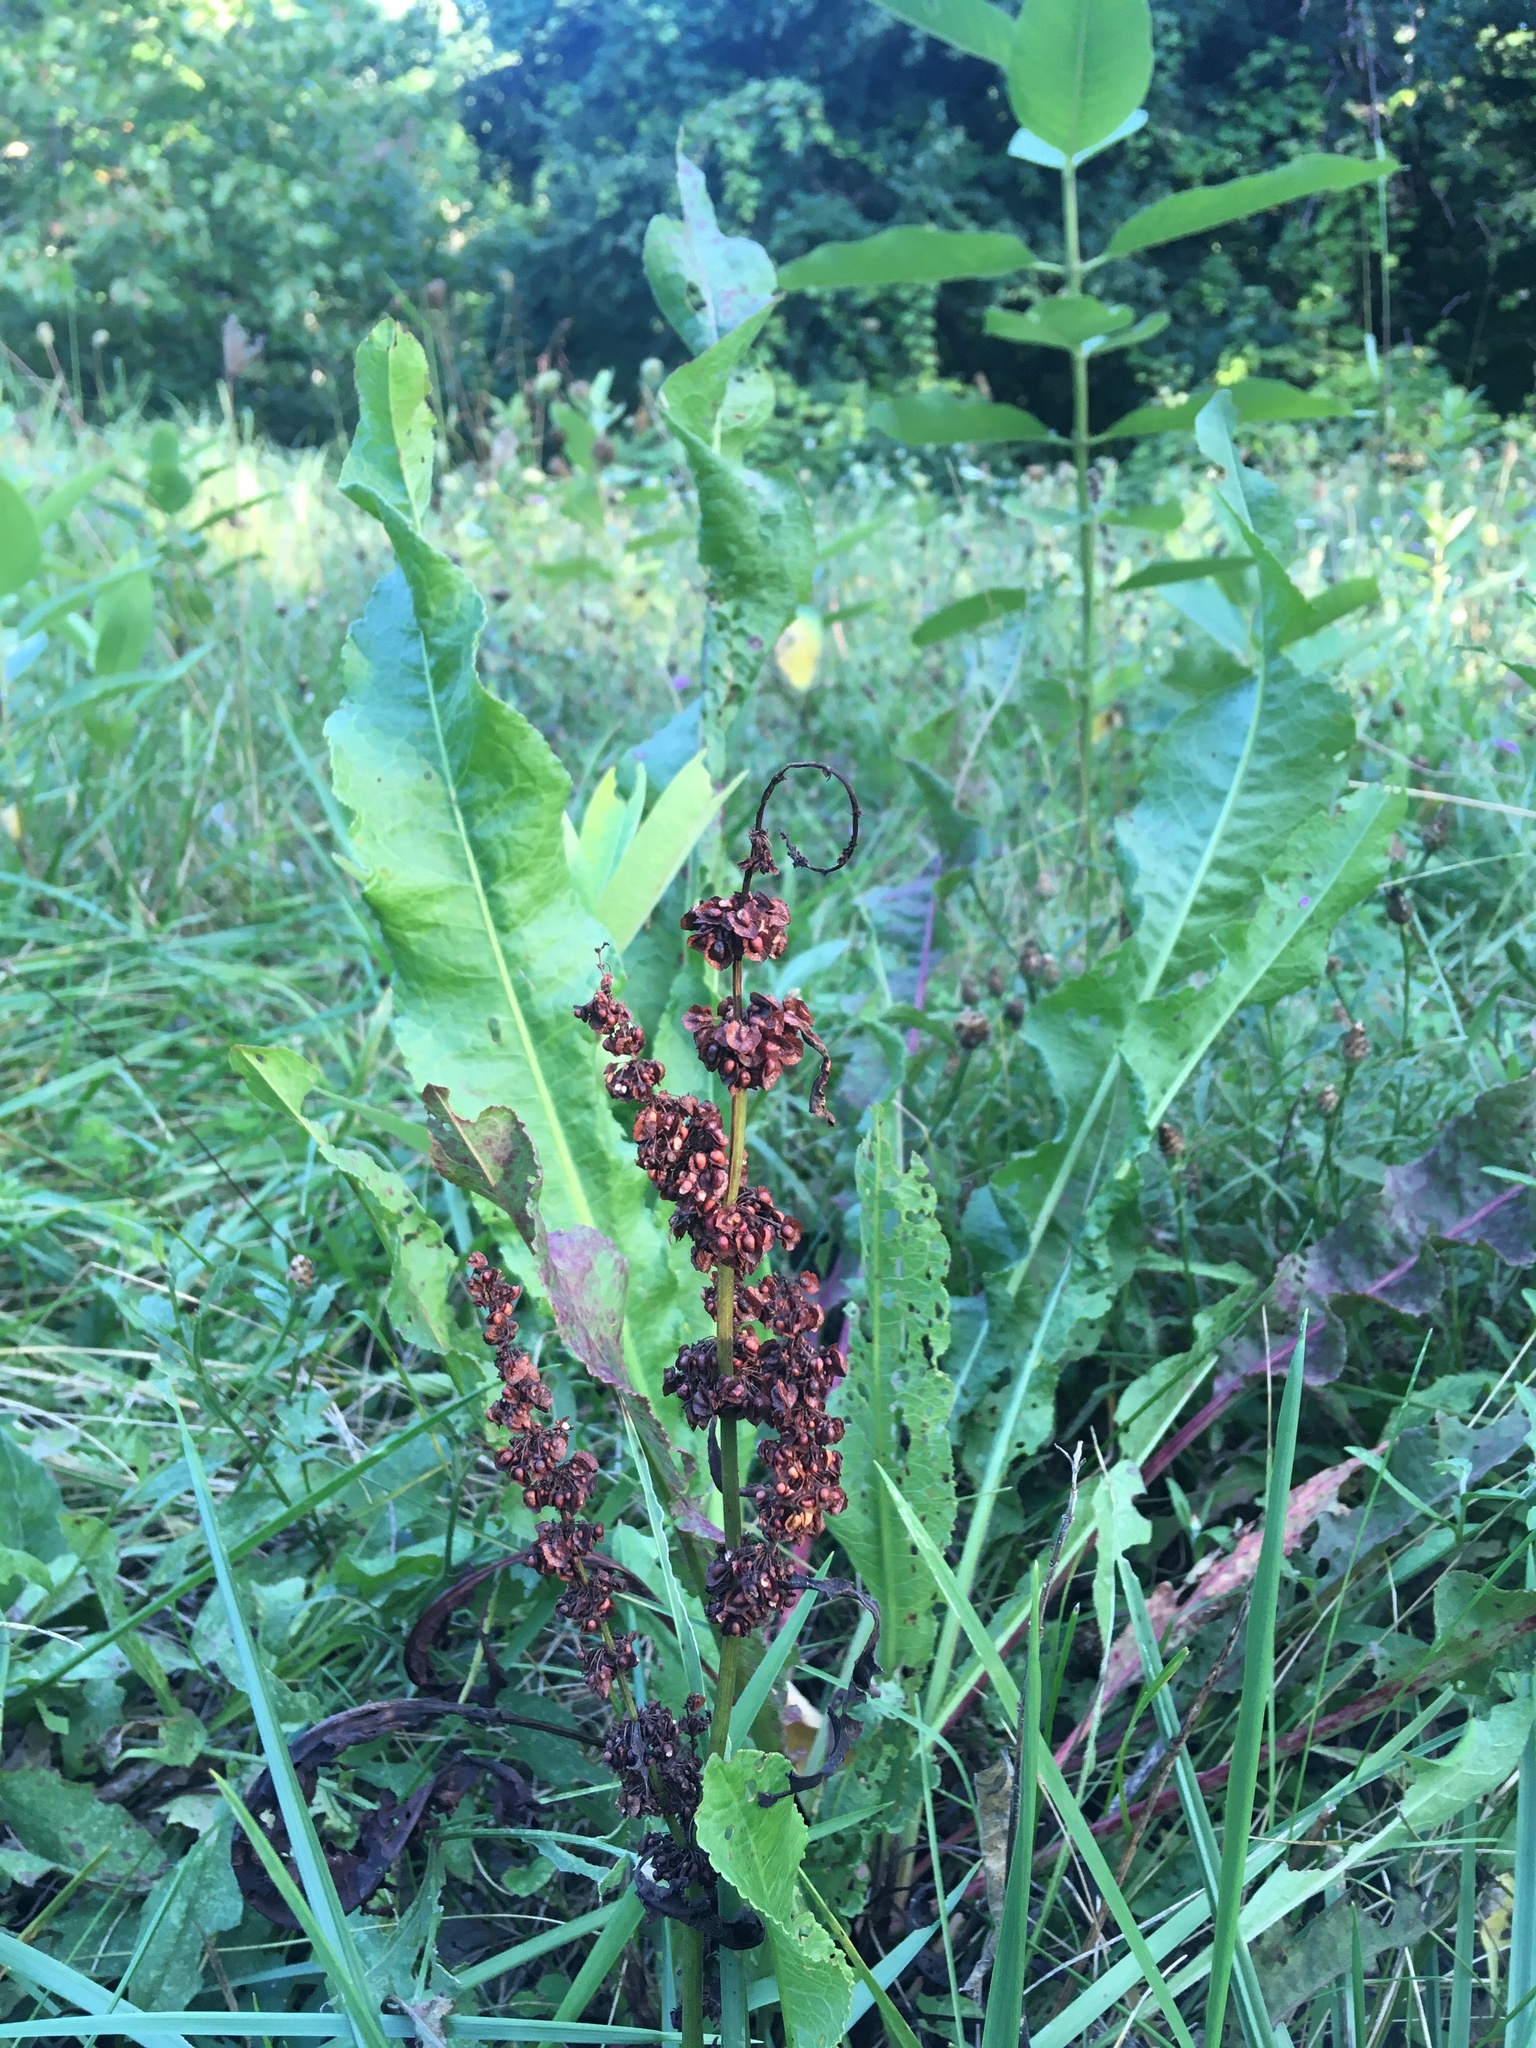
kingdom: Plantae
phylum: Tracheophyta
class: Magnoliopsida
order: Caryophyllales
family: Polygonaceae
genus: Rumex
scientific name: Rumex crispus
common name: Curled dock
